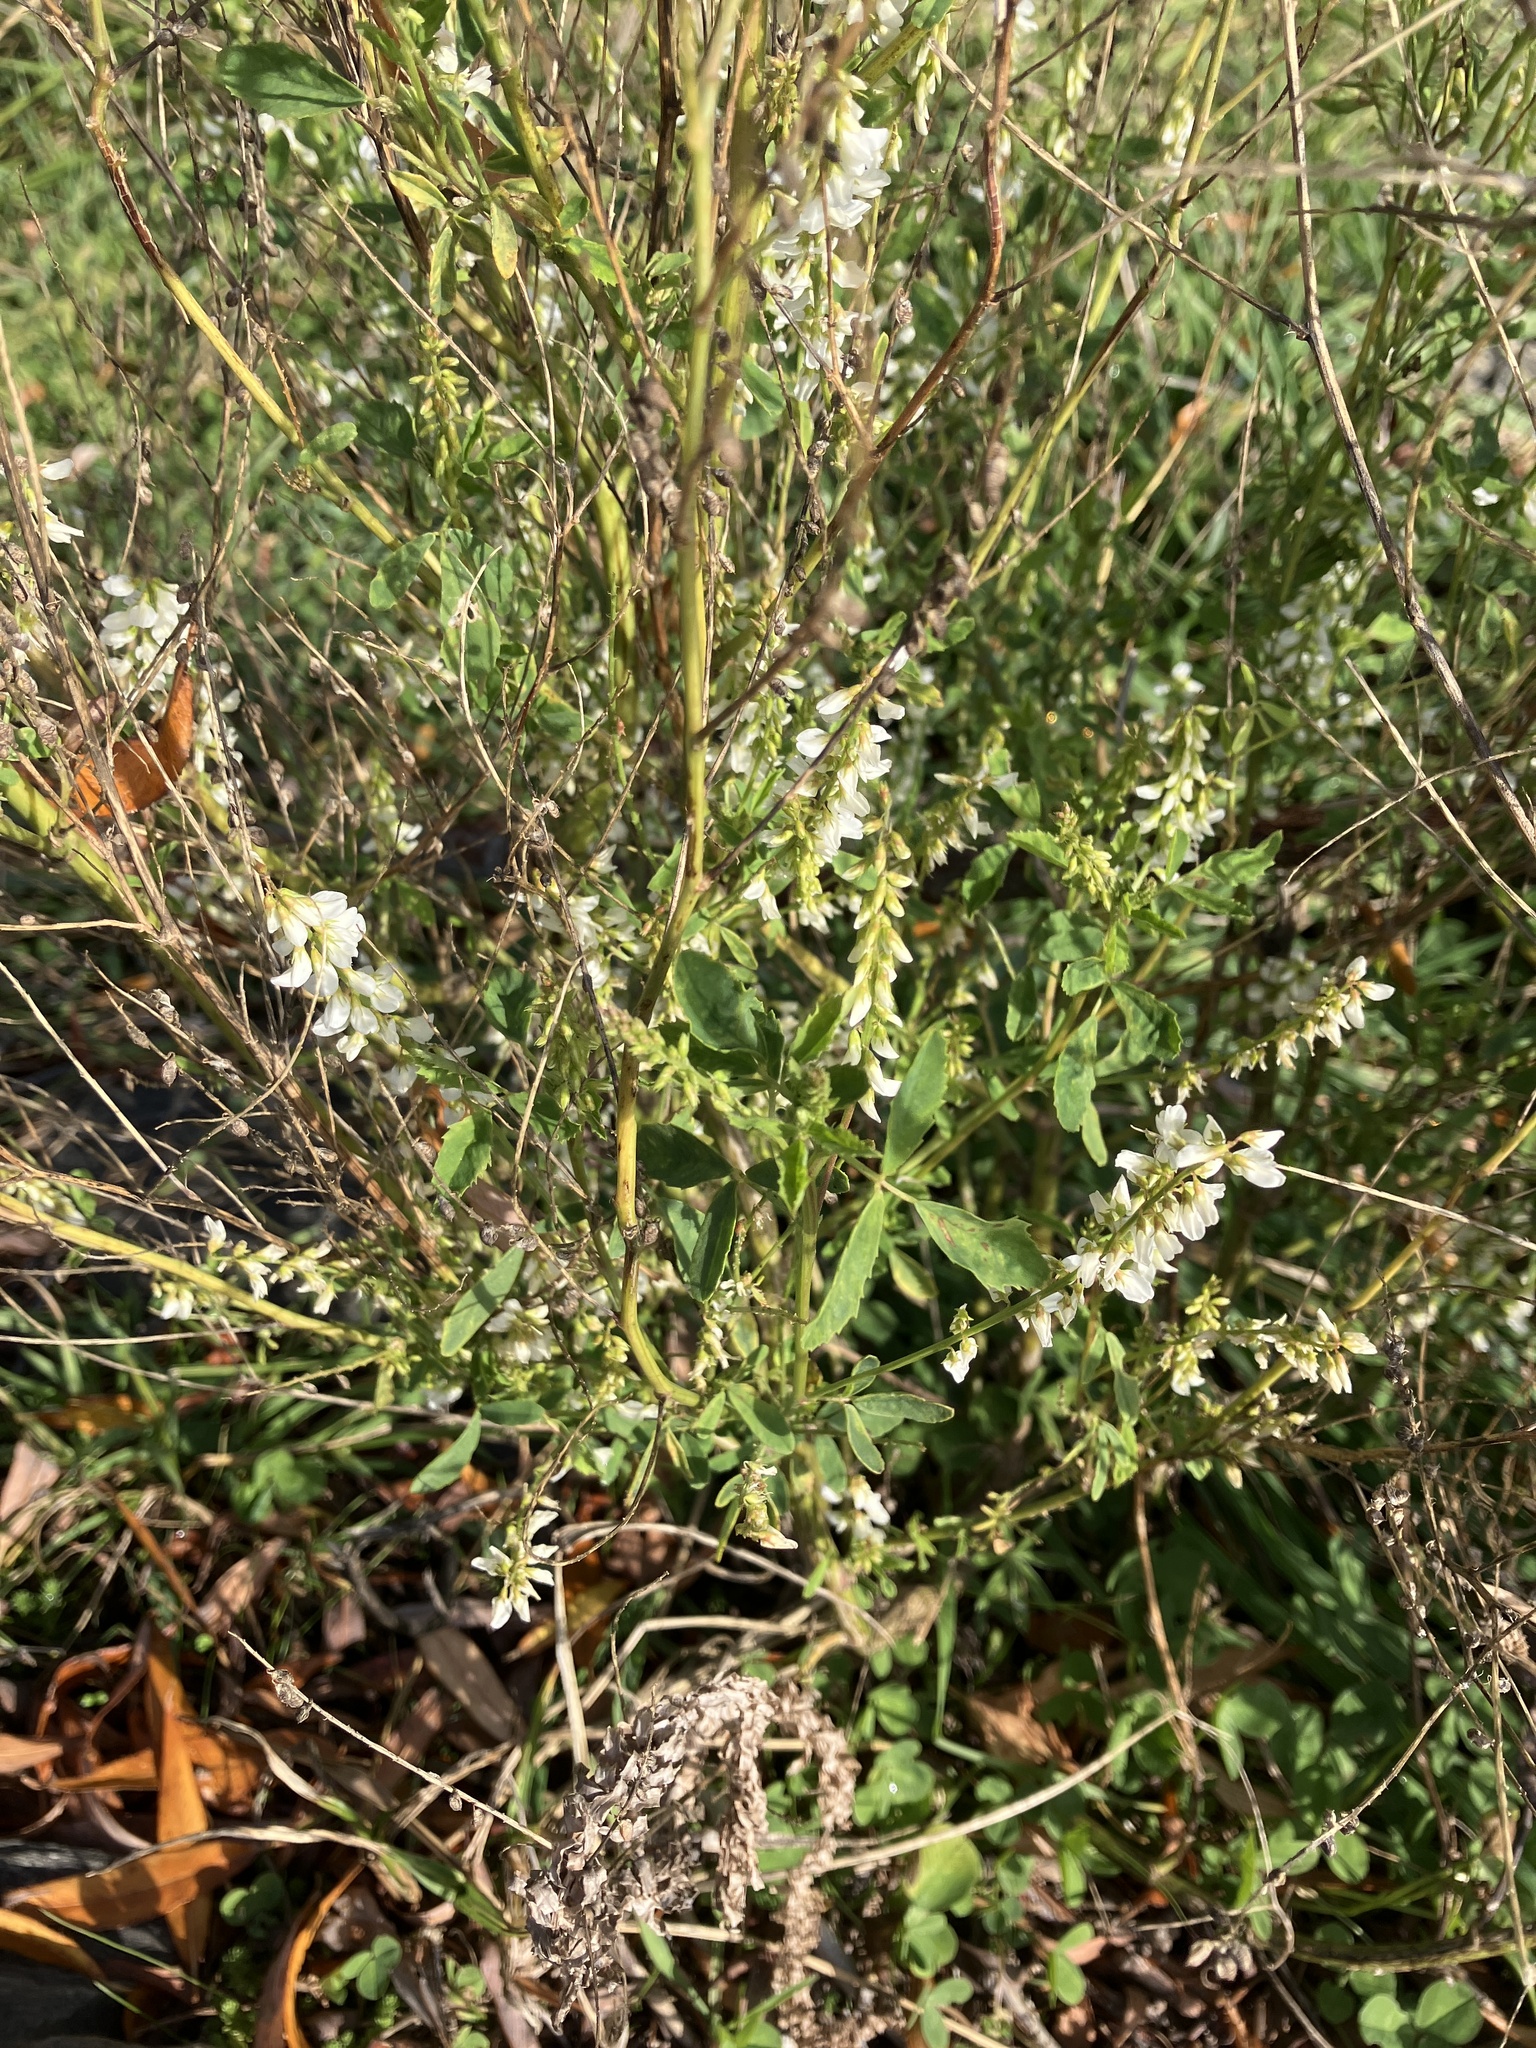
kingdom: Plantae
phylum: Tracheophyta
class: Magnoliopsida
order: Fabales
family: Fabaceae
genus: Melilotus
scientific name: Melilotus albus
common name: White melilot
